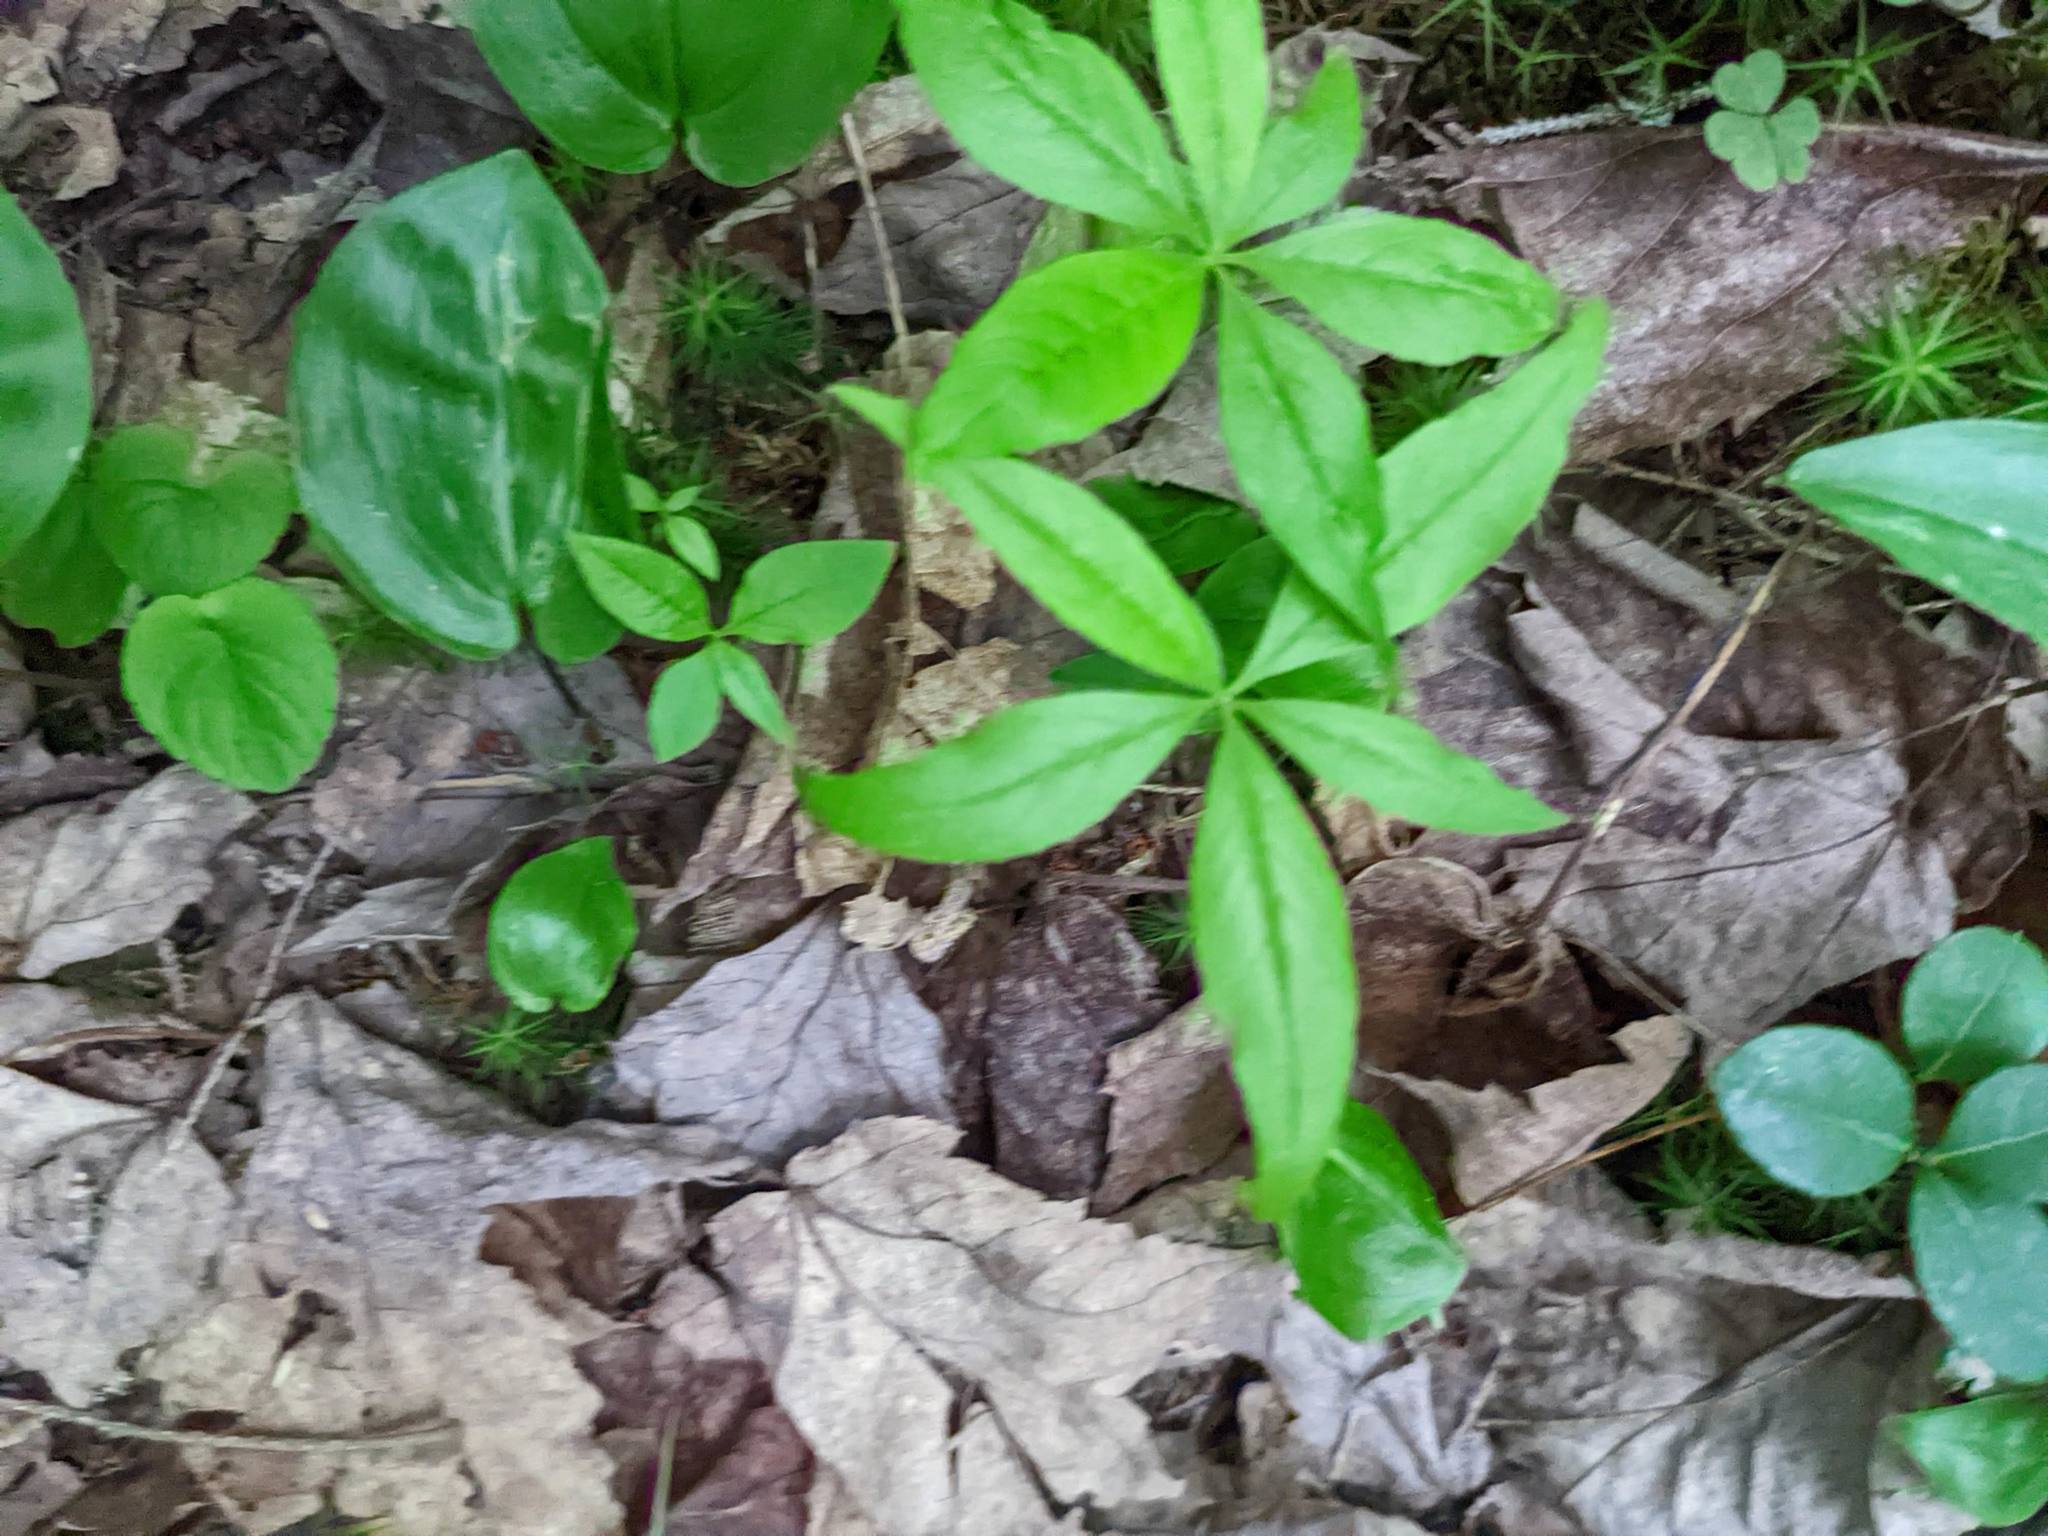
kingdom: Plantae
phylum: Tracheophyta
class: Magnoliopsida
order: Ericales
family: Primulaceae
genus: Lysimachia
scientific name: Lysimachia borealis
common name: American starflower
